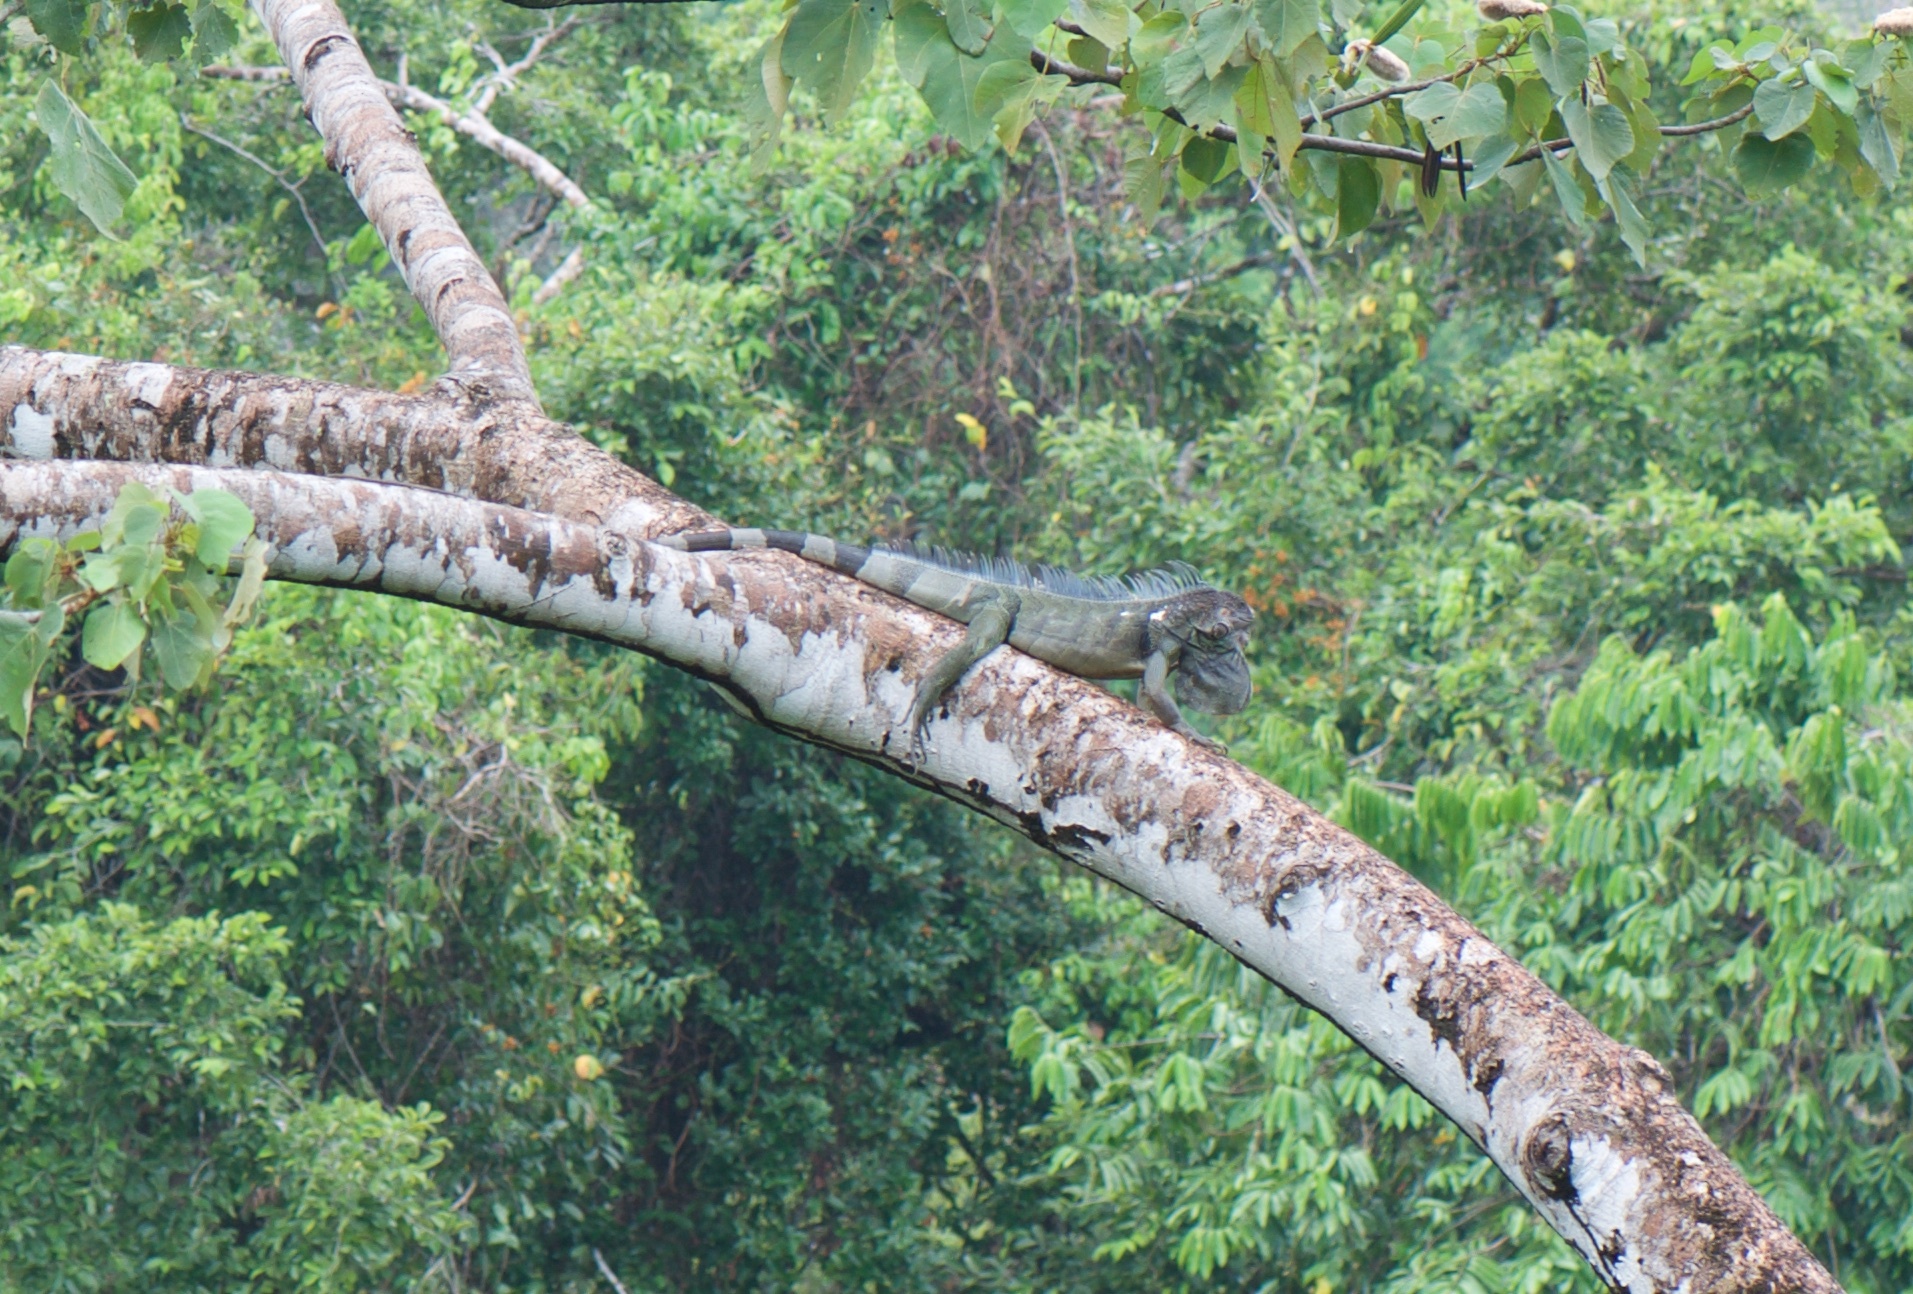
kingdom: Animalia
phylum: Chordata
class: Squamata
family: Iguanidae
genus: Iguana
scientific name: Iguana iguana
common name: Green iguana
